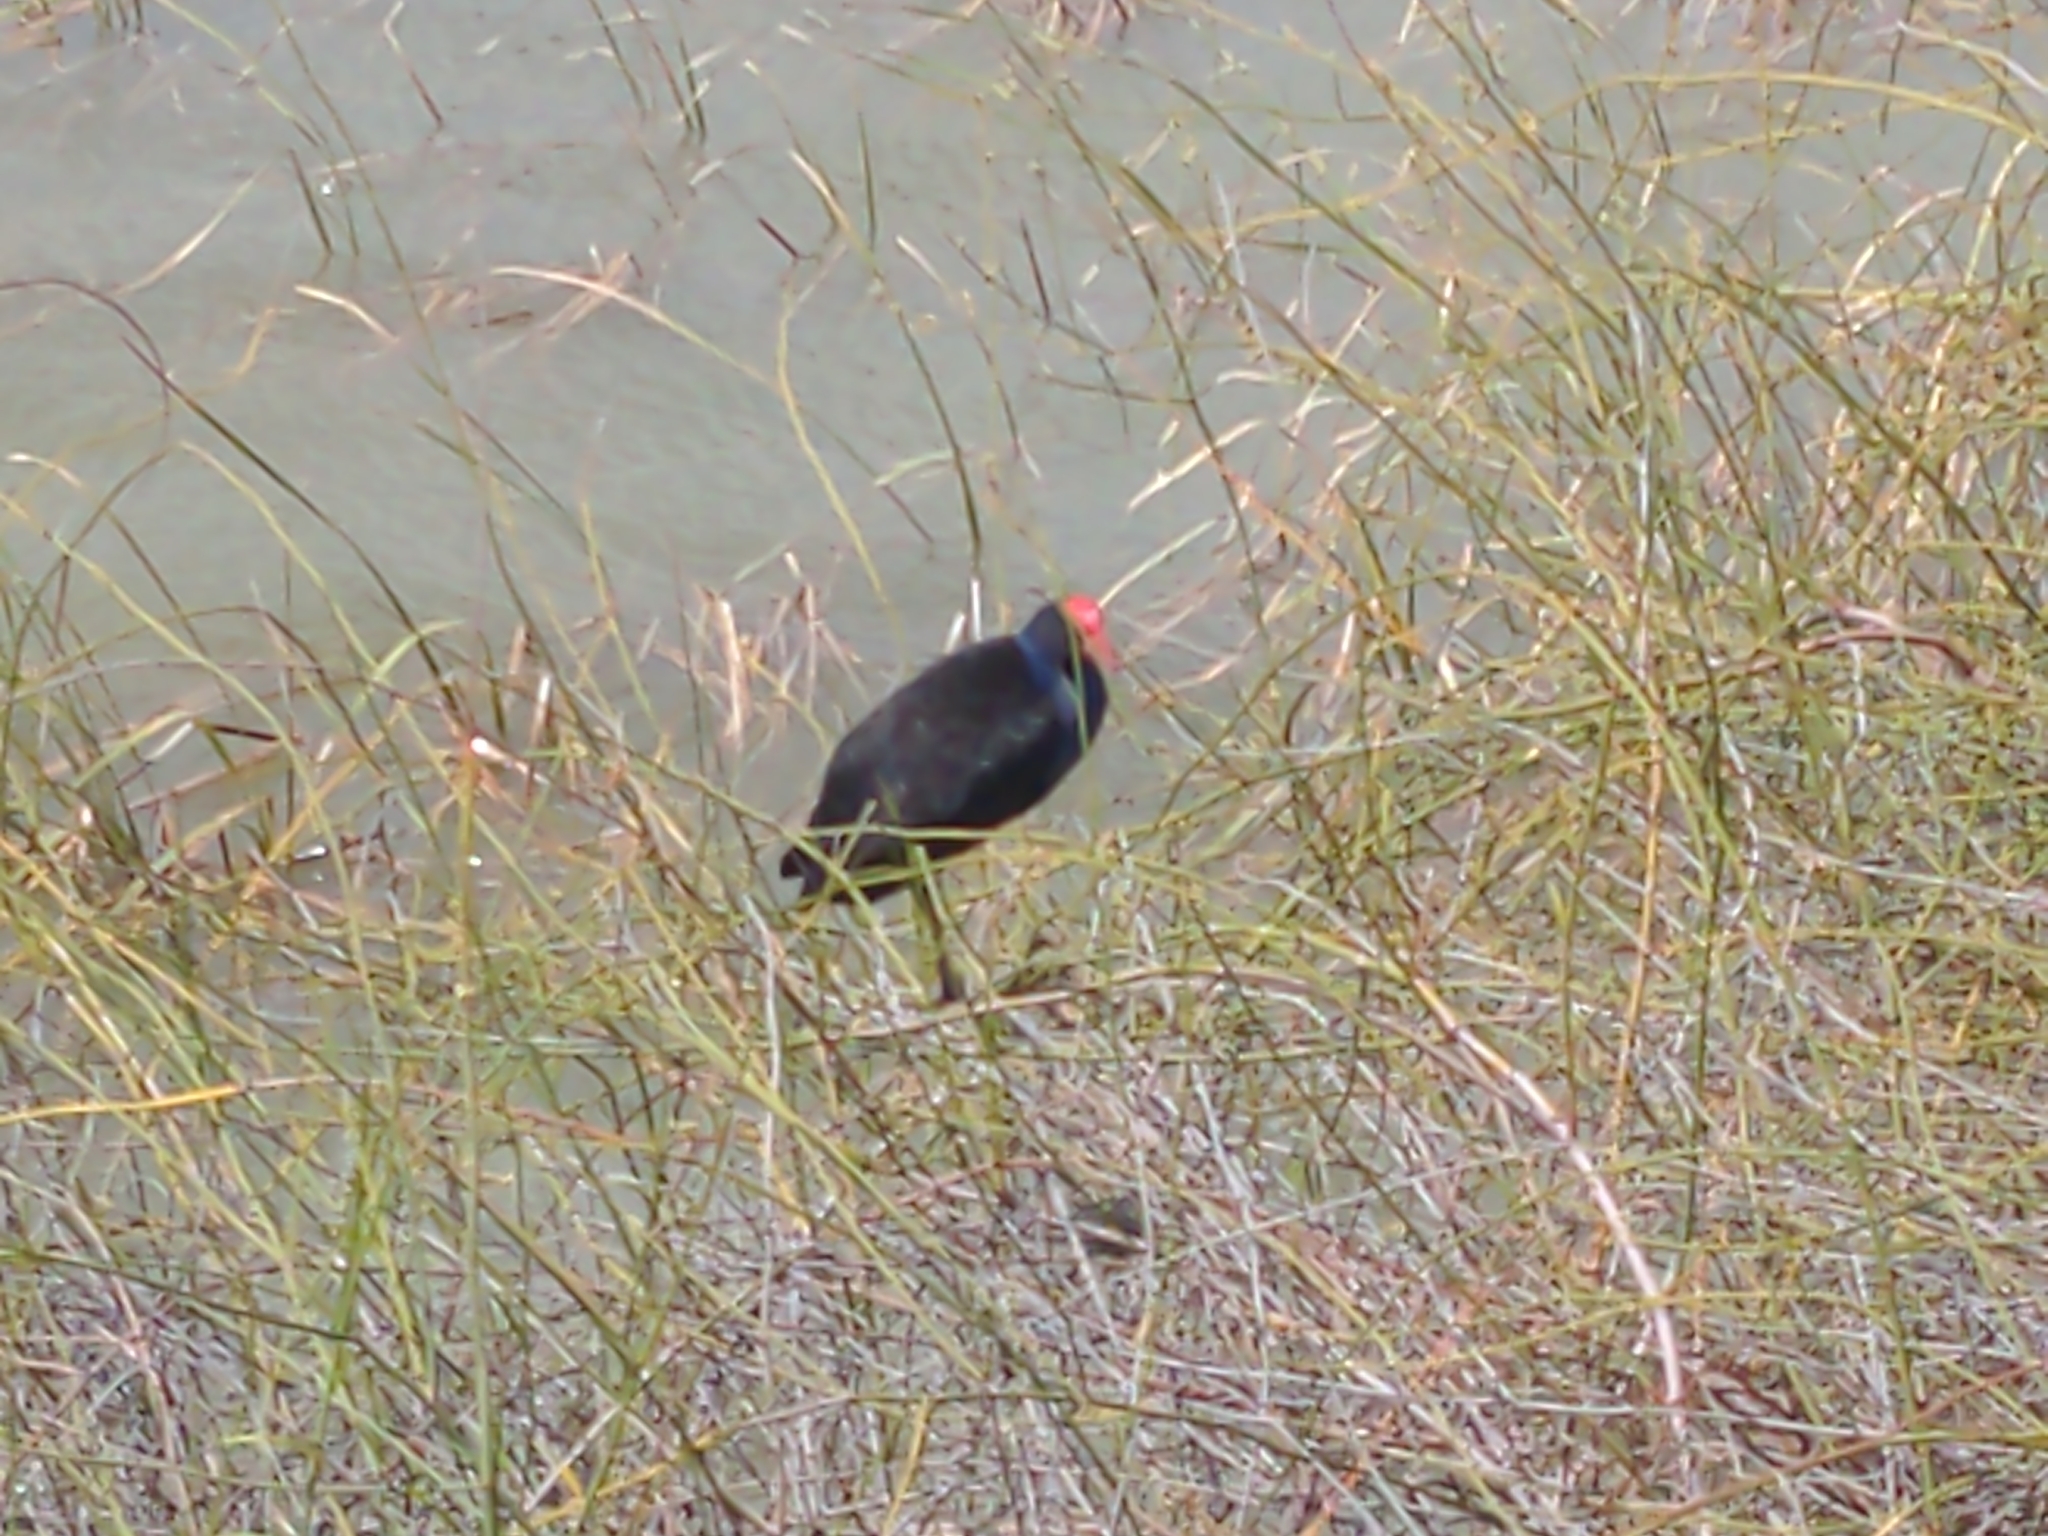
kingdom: Animalia
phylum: Chordata
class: Aves
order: Gruiformes
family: Rallidae
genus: Porphyrio
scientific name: Porphyrio melanotus
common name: Australasian swamphen
